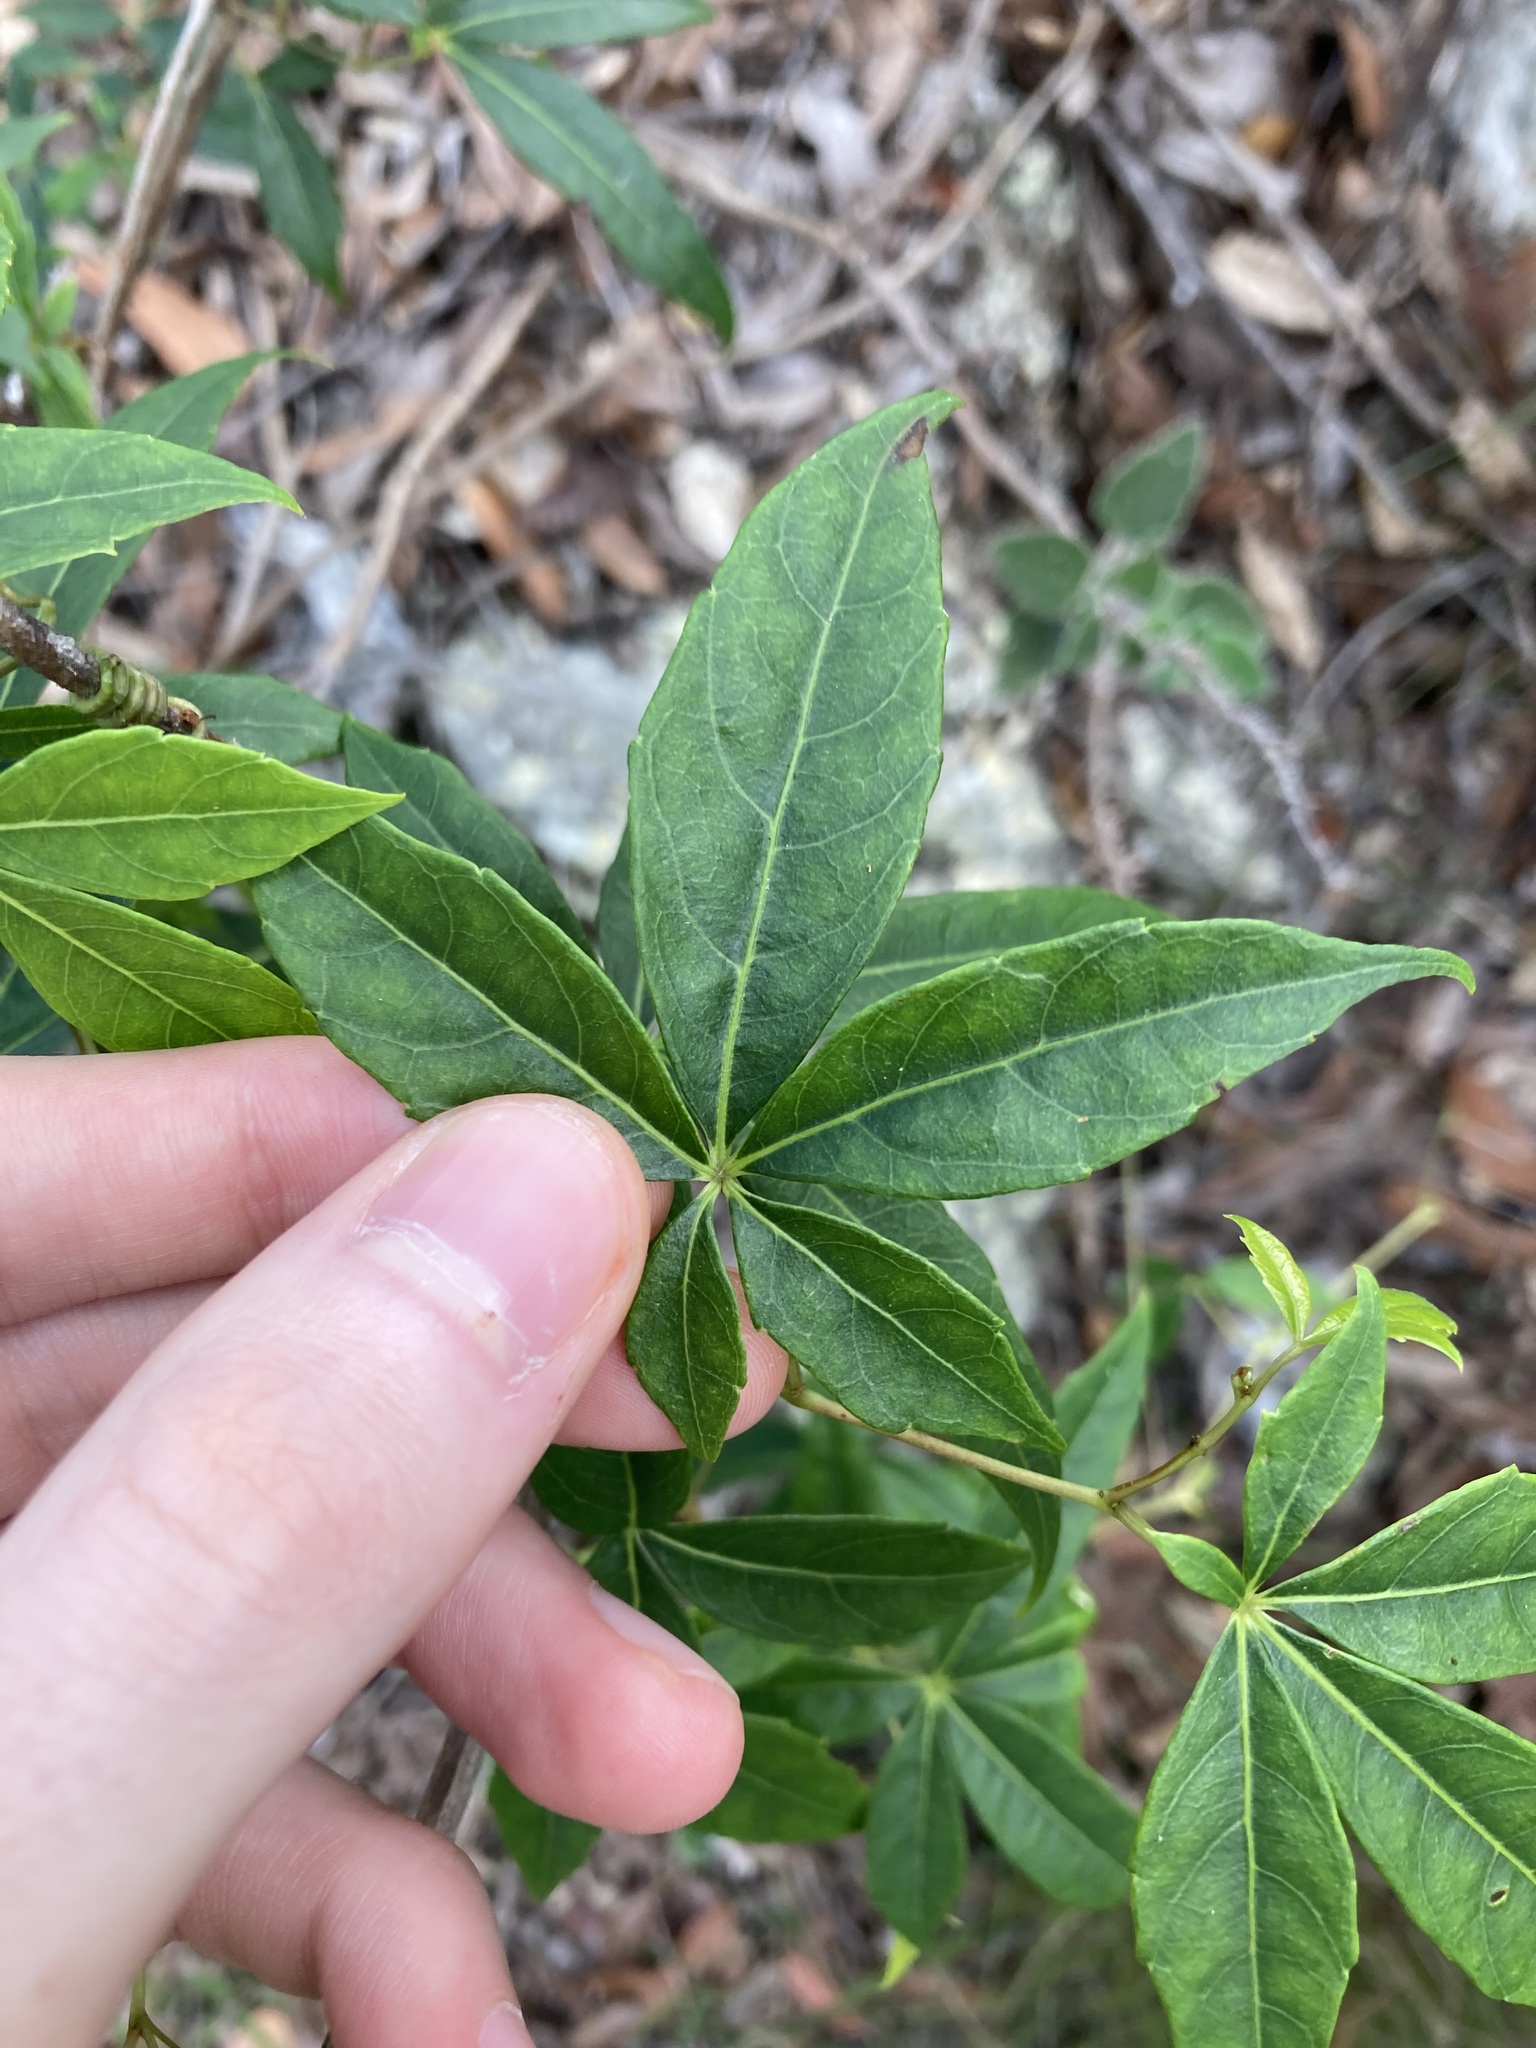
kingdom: Plantae
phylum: Tracheophyta
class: Magnoliopsida
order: Vitales
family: Vitaceae
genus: Clematicissus
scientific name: Clematicissus opaca
